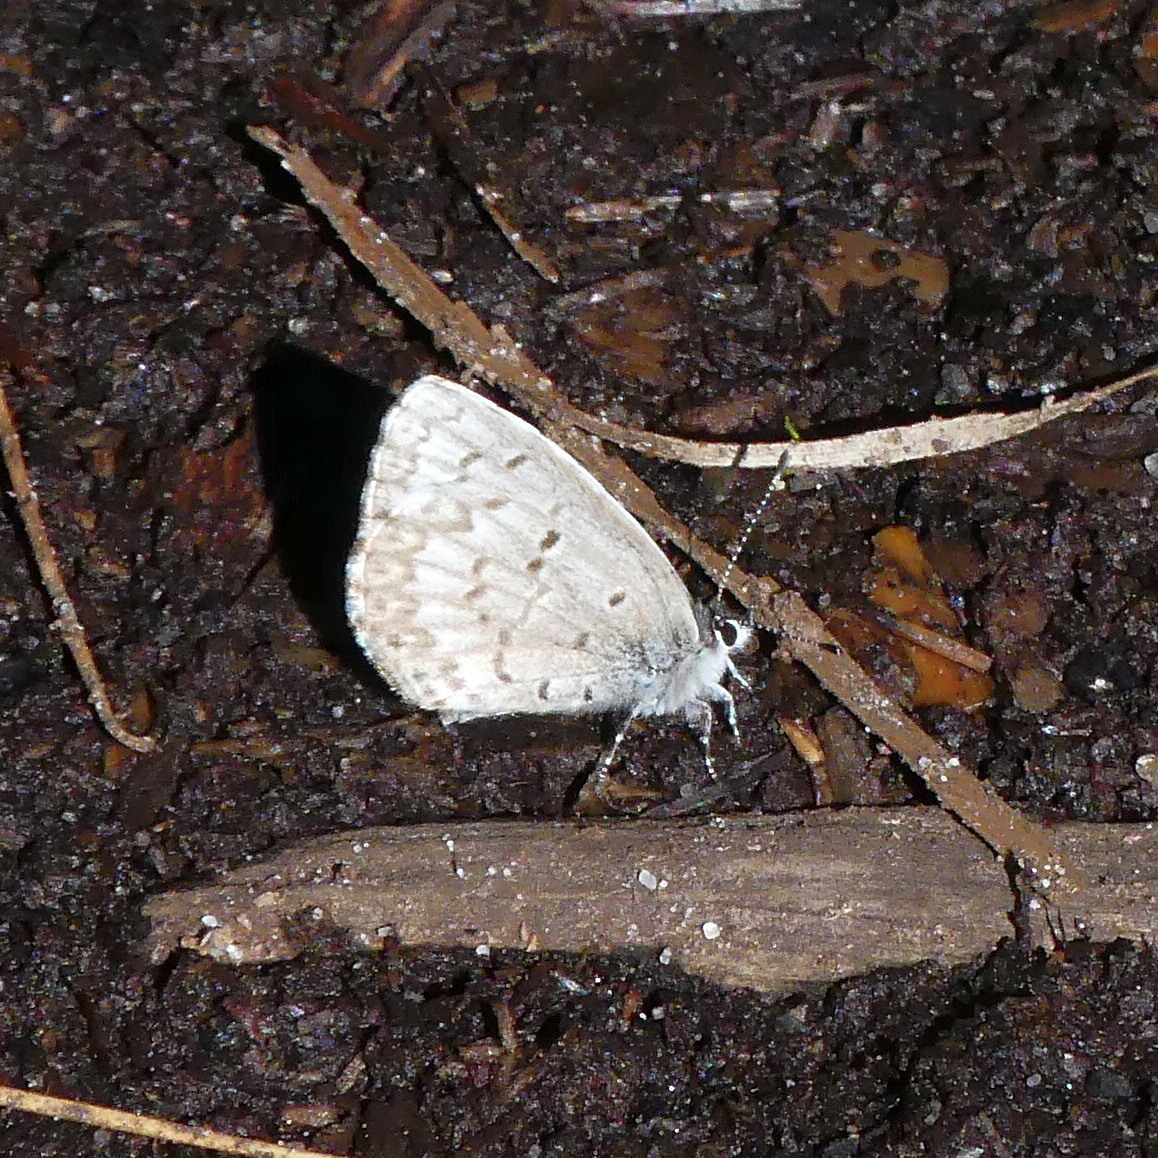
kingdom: Animalia
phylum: Arthropoda
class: Insecta
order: Lepidoptera
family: Lycaenidae
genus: Celastrina
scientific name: Celastrina lucia
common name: Lucia azure
